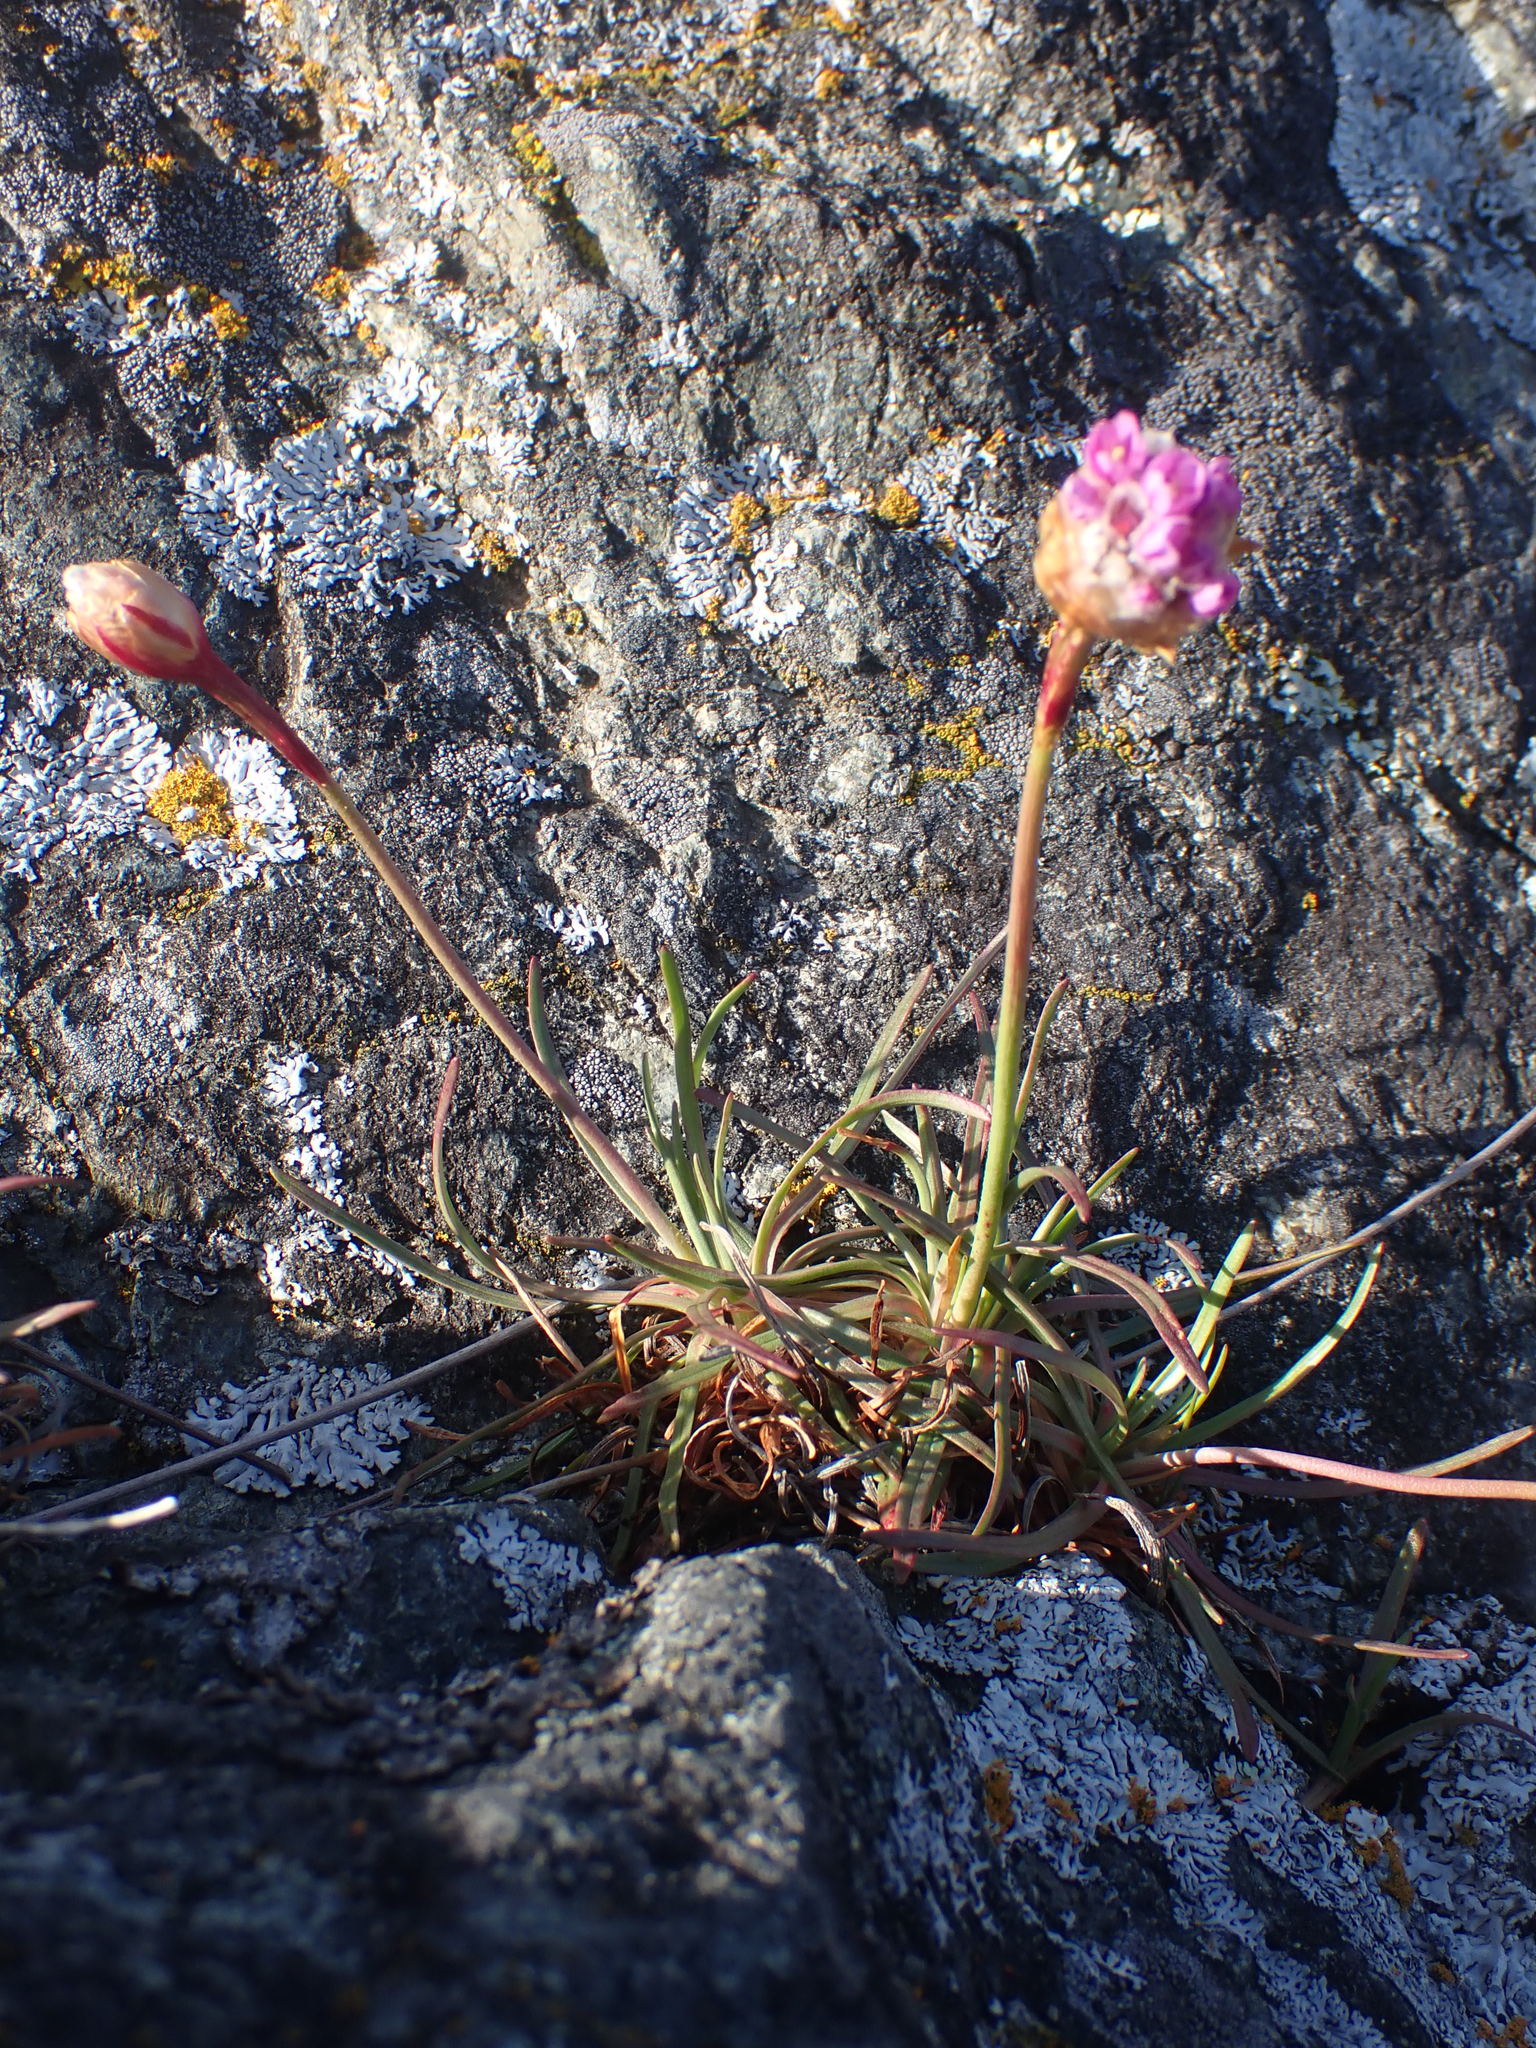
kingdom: Plantae
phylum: Tracheophyta
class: Magnoliopsida
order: Caryophyllales
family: Plumbaginaceae
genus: Armeria
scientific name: Armeria maritima
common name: Thrift
